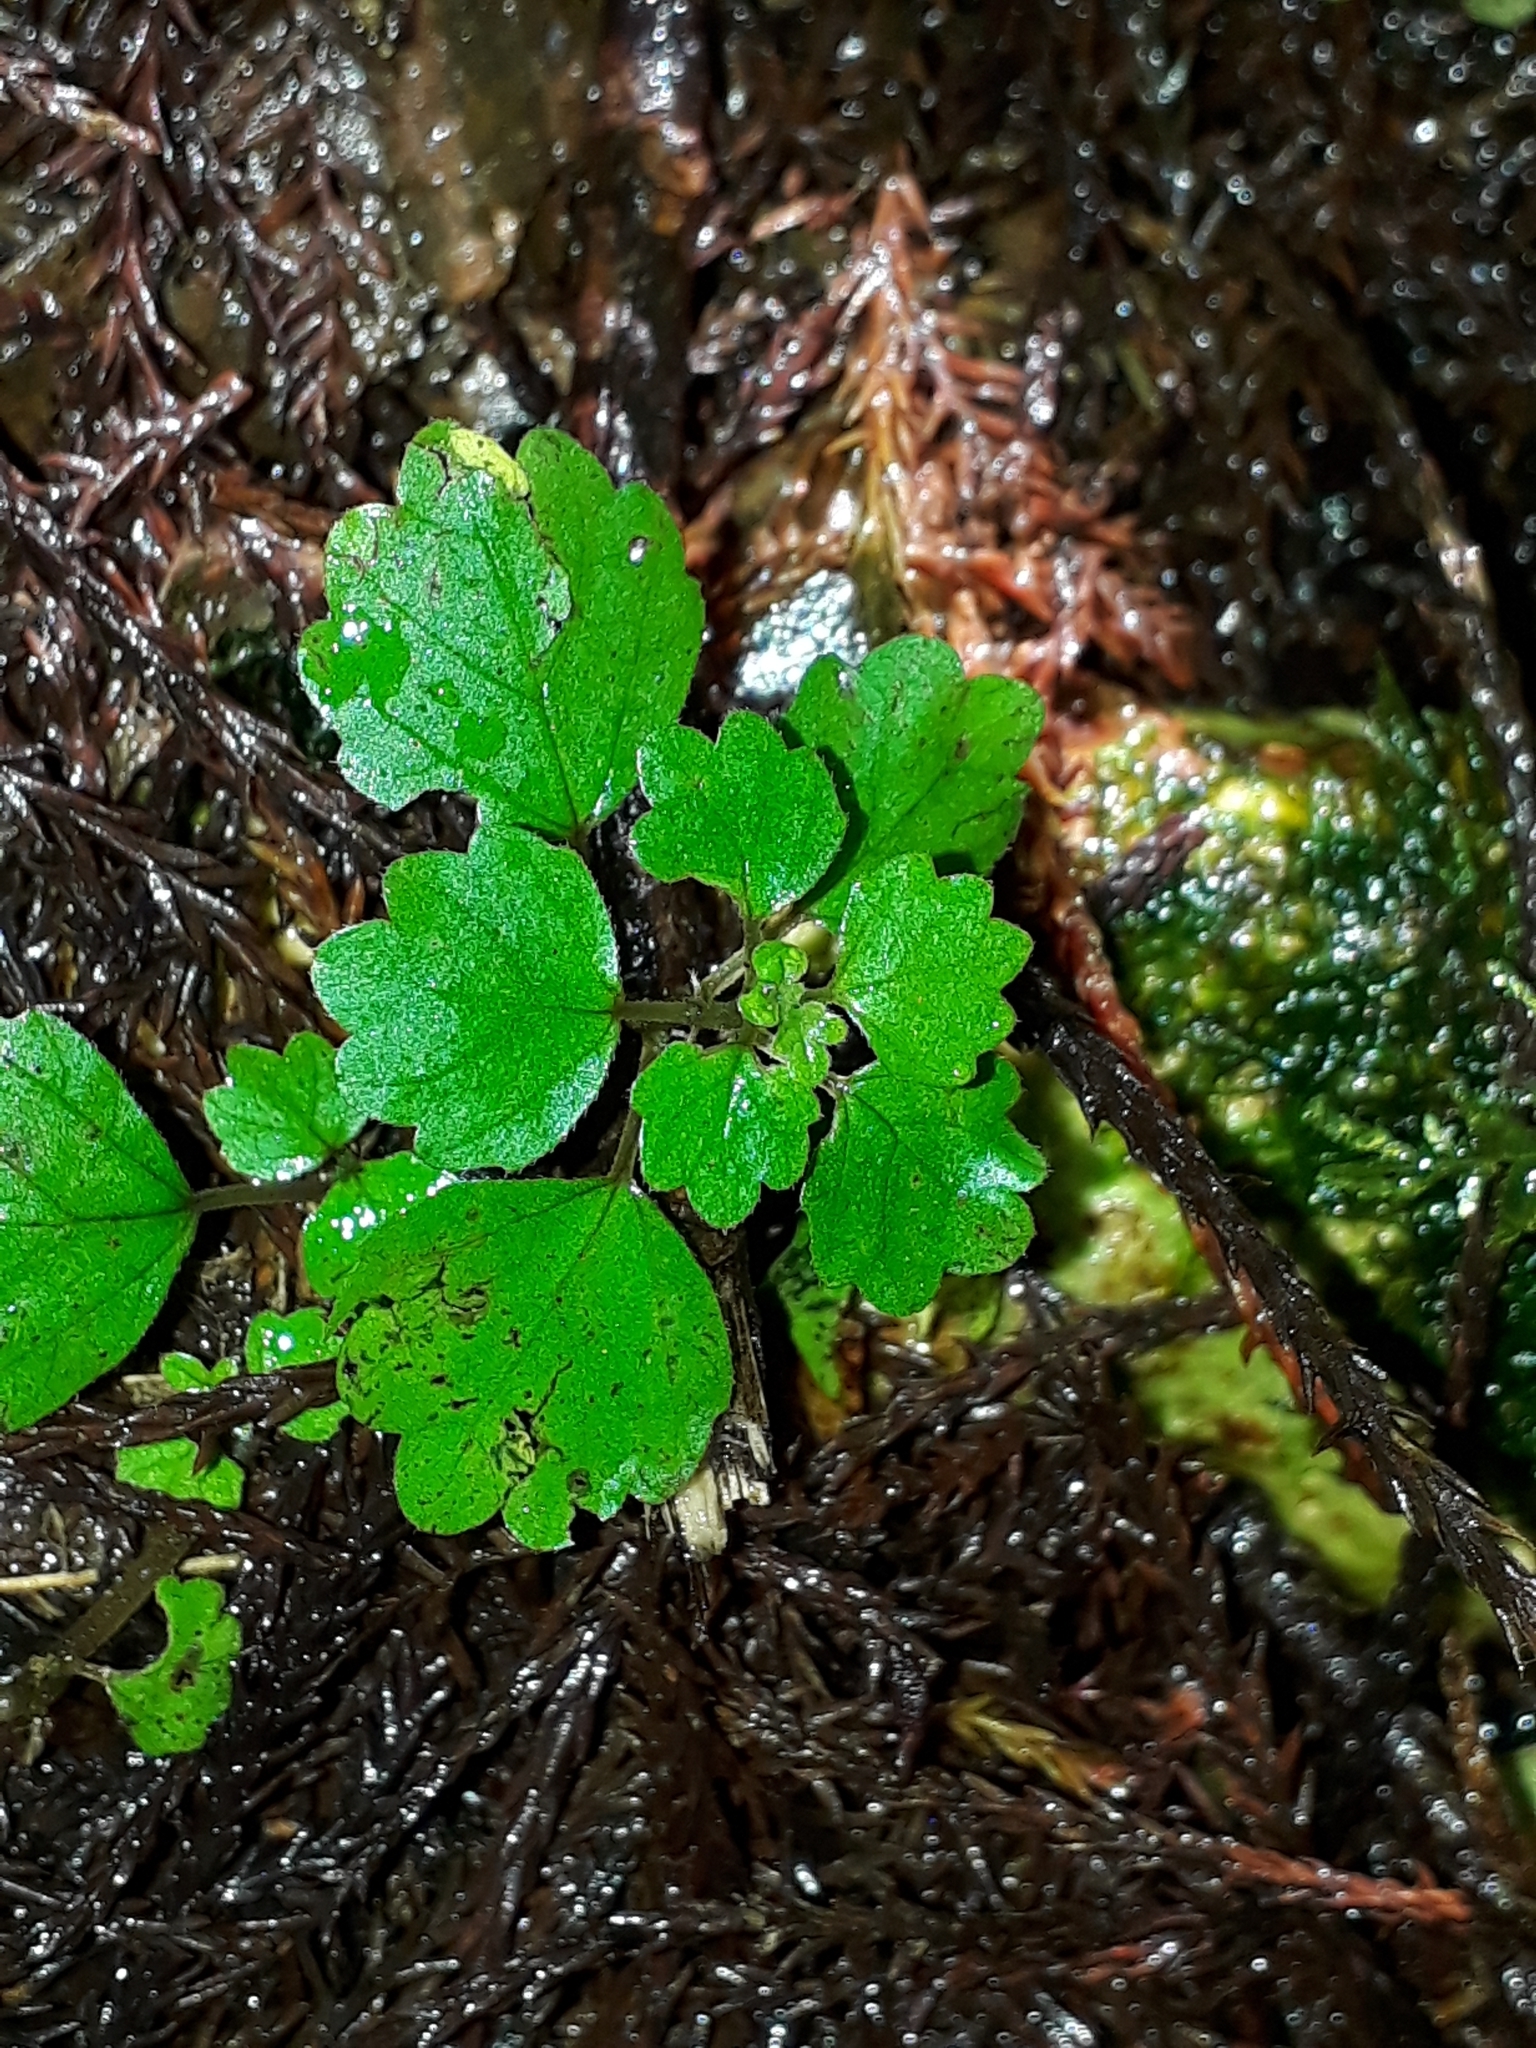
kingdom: Plantae
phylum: Tracheophyta
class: Magnoliopsida
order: Rosales
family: Urticaceae
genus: Australina
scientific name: Australina pusilla
